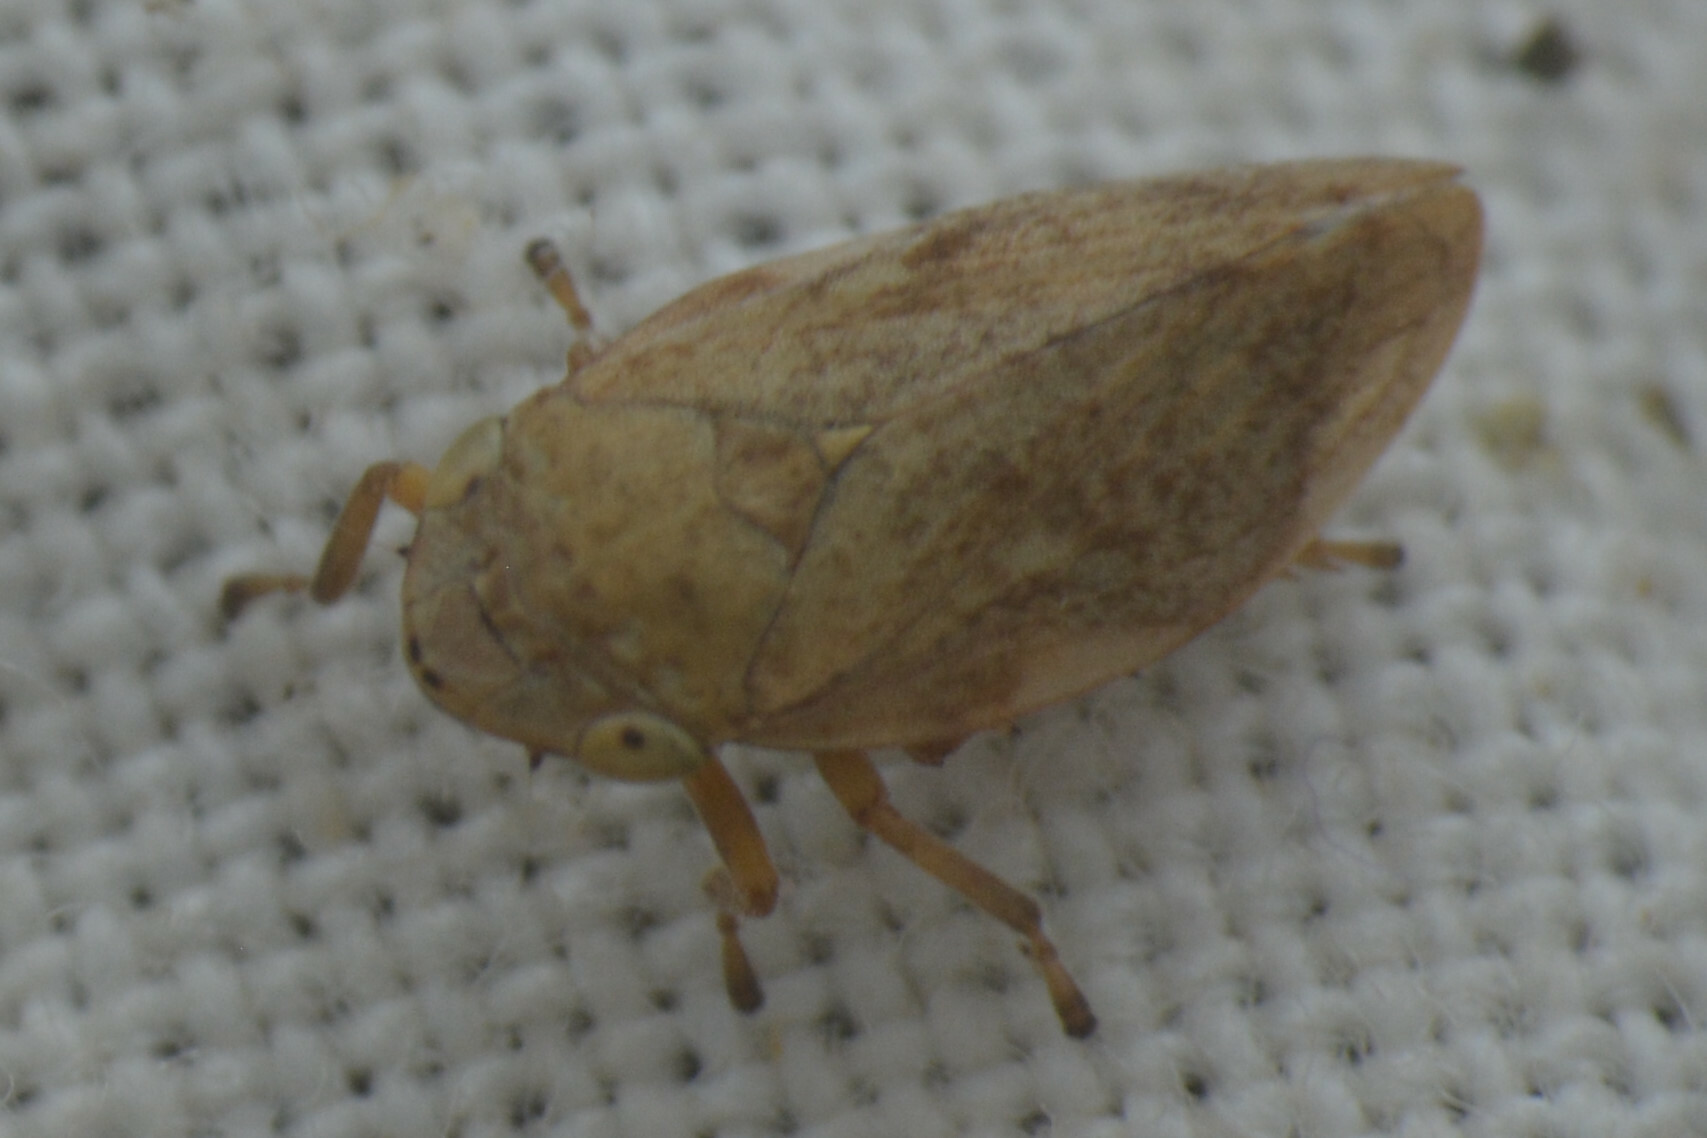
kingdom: Animalia
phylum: Arthropoda
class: Insecta
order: Hemiptera
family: Aphrophoridae
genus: Philaenus
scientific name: Philaenus spumarius
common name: Meadow spittlebug
